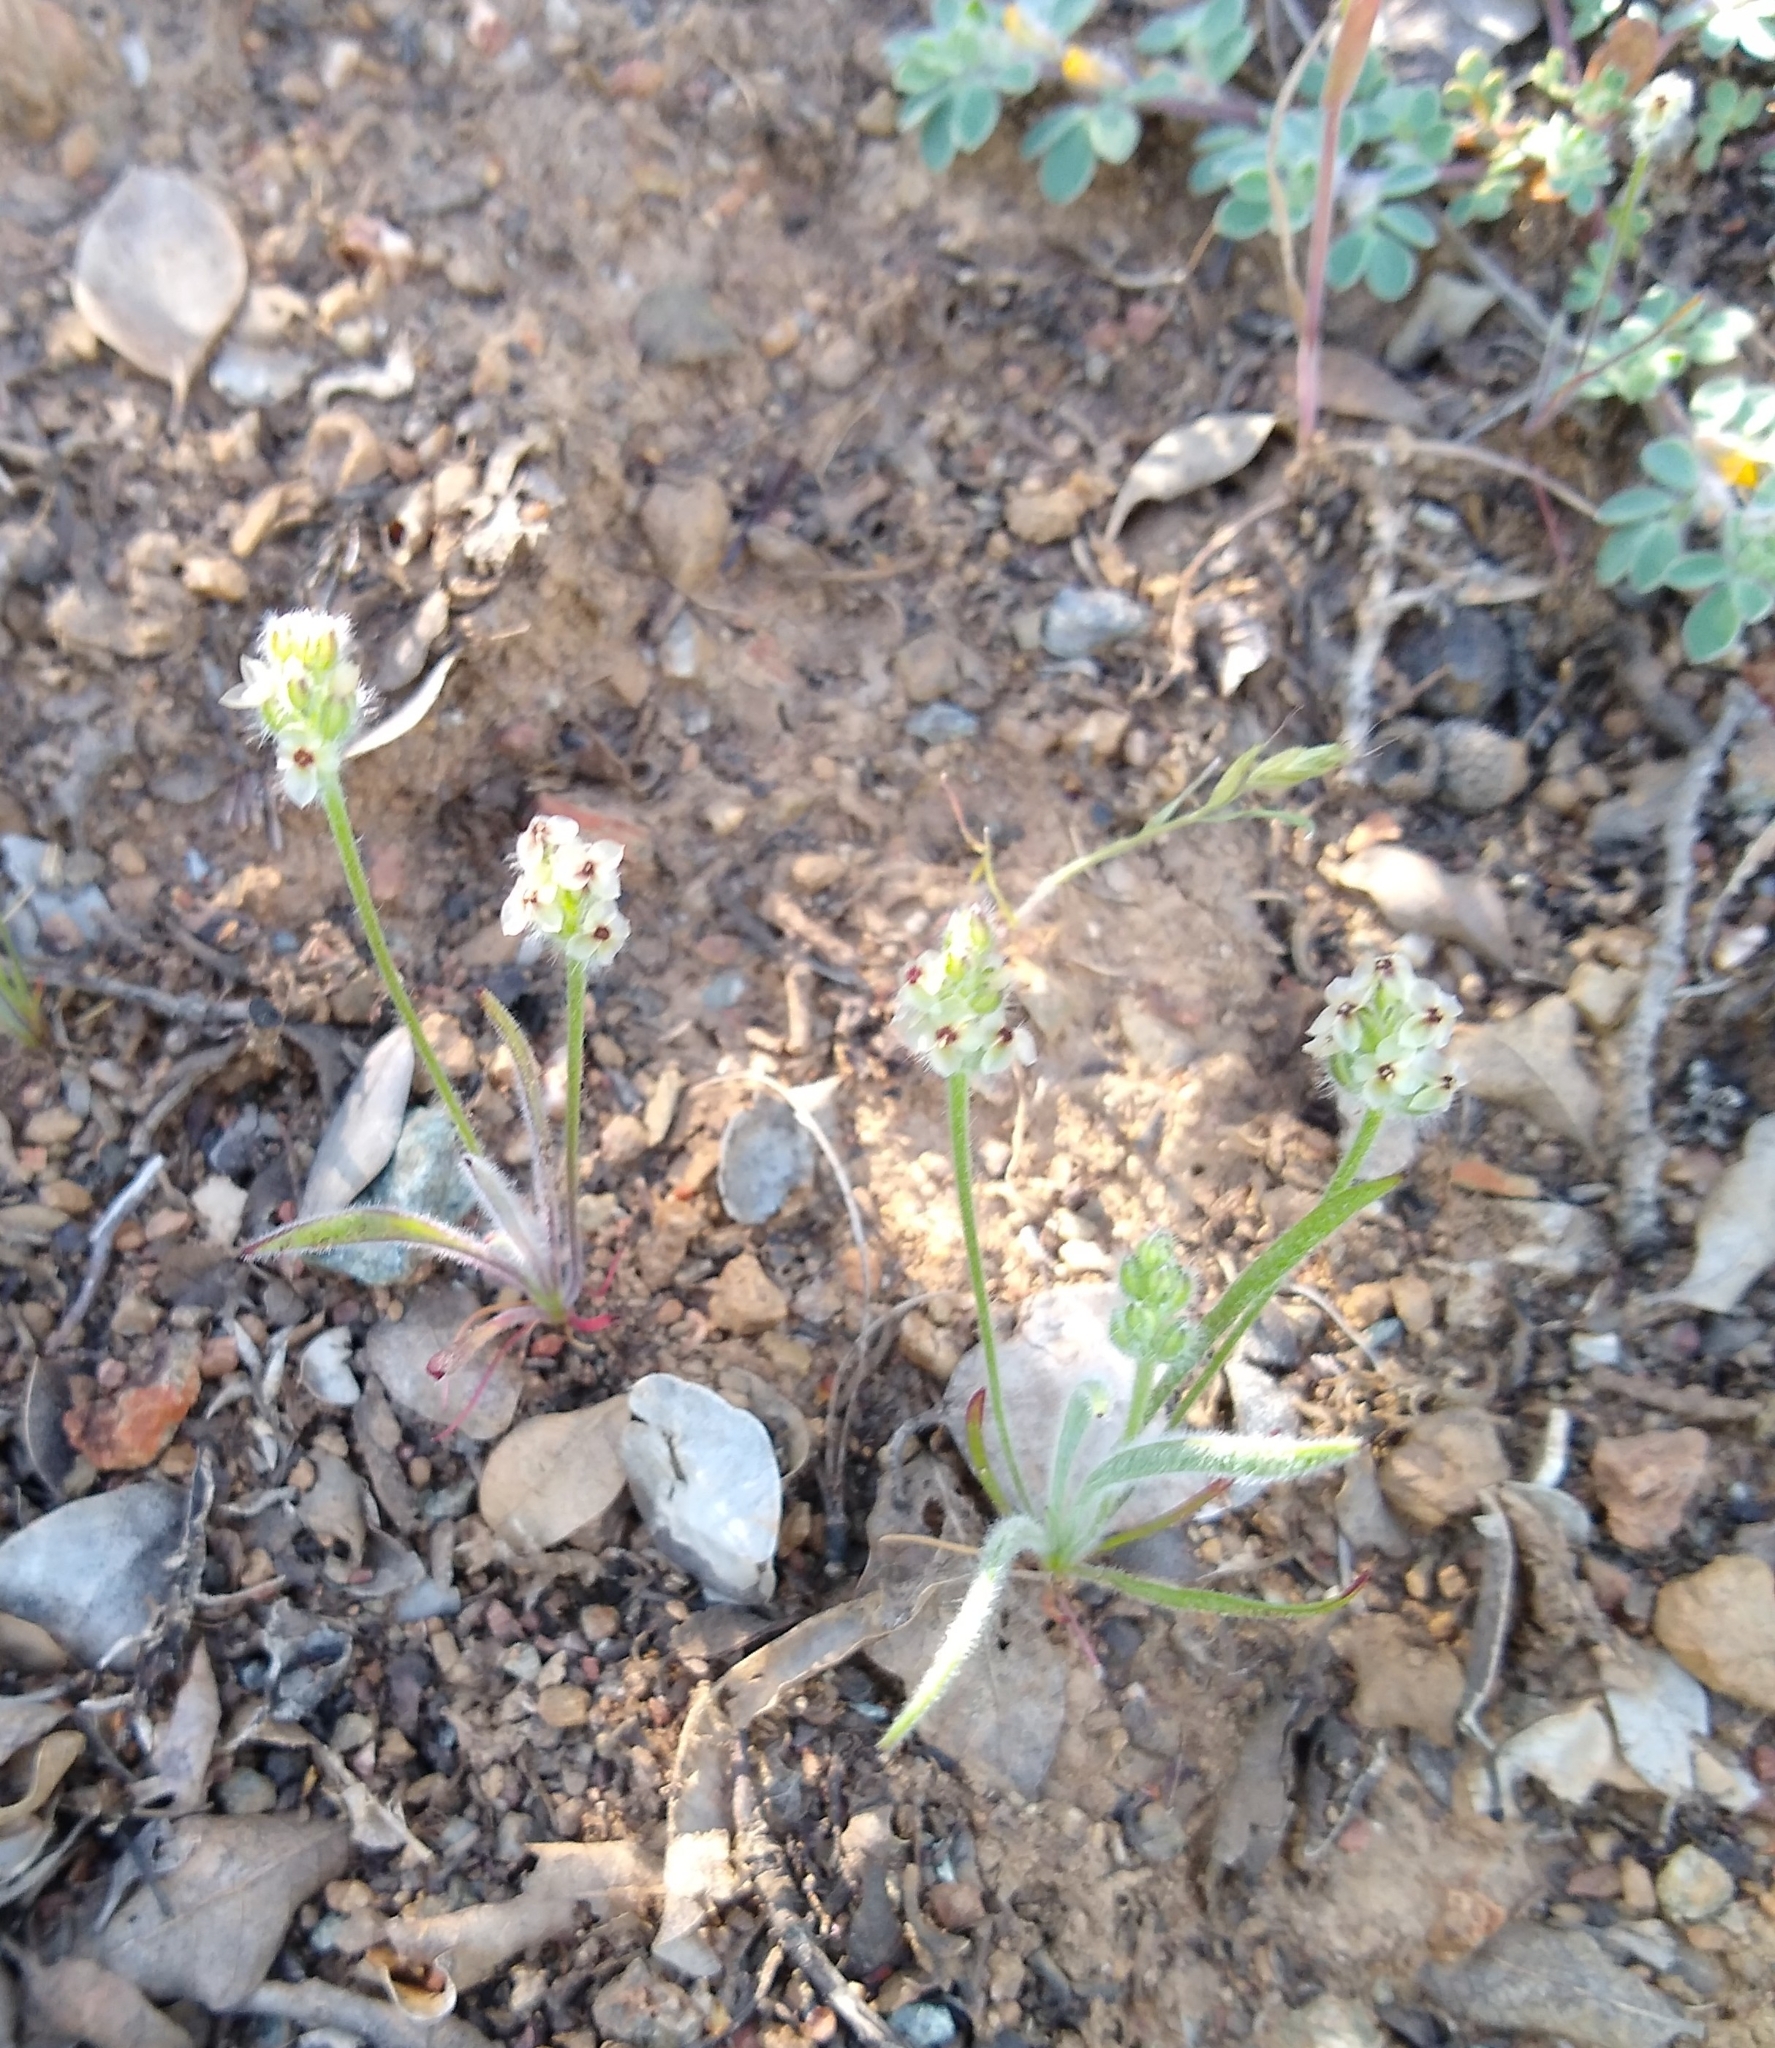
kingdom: Plantae
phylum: Tracheophyta
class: Magnoliopsida
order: Lamiales
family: Plantaginaceae
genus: Plantago
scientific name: Plantago erecta
